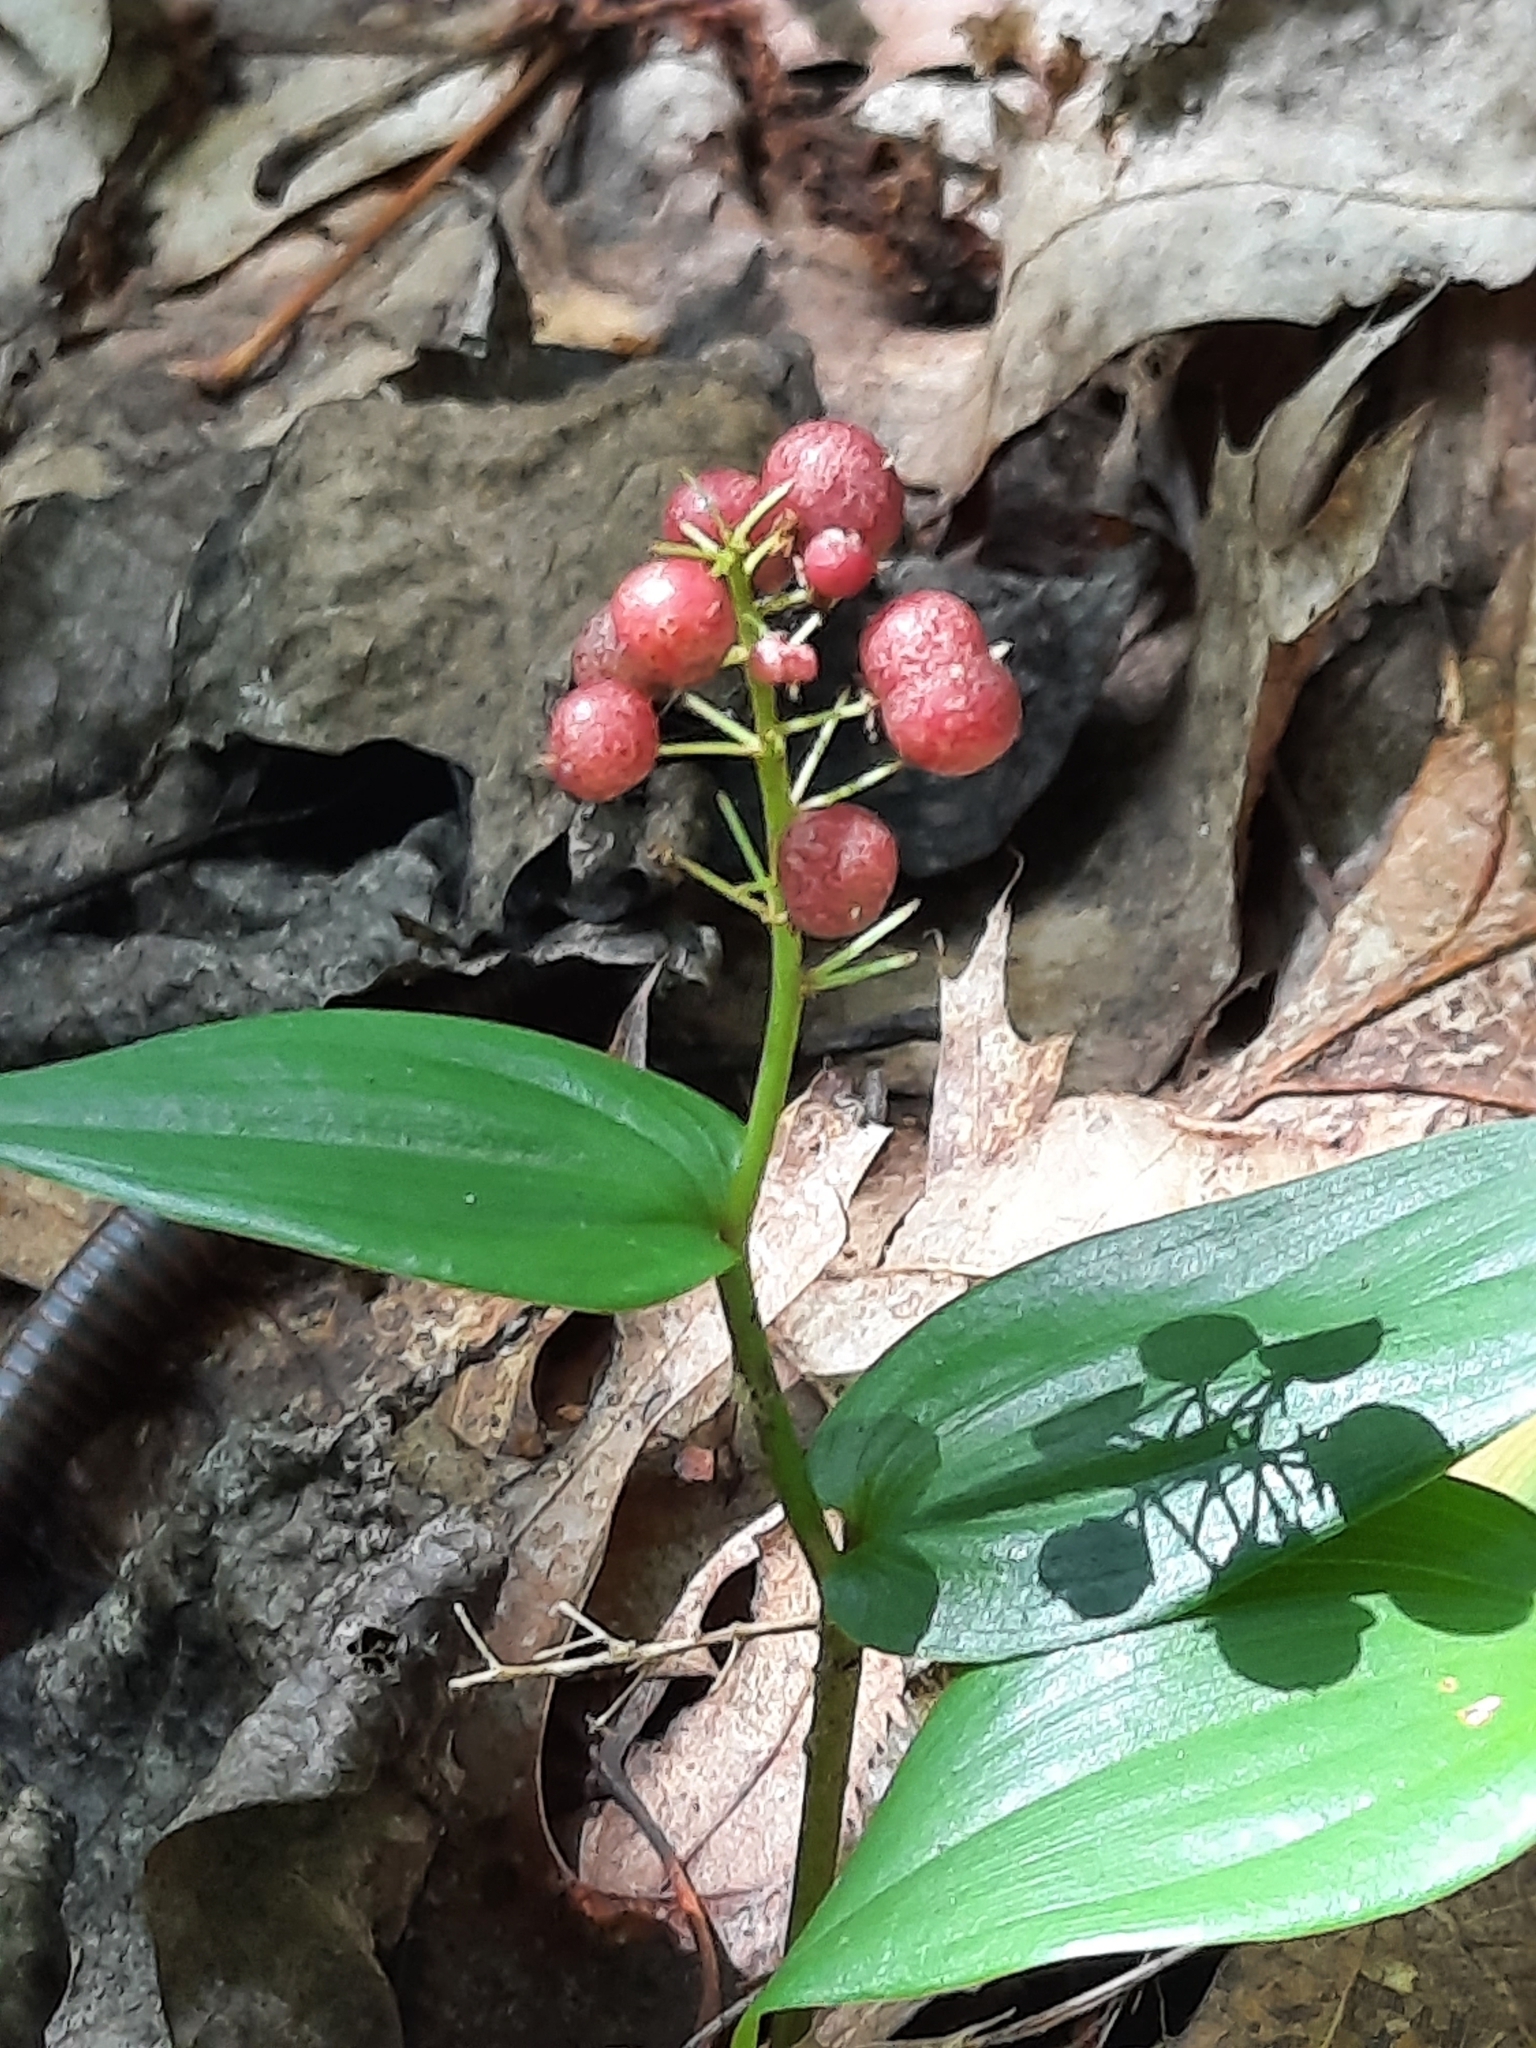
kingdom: Plantae
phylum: Tracheophyta
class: Liliopsida
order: Asparagales
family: Asparagaceae
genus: Maianthemum
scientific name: Maianthemum canadense
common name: False lily-of-the-valley
